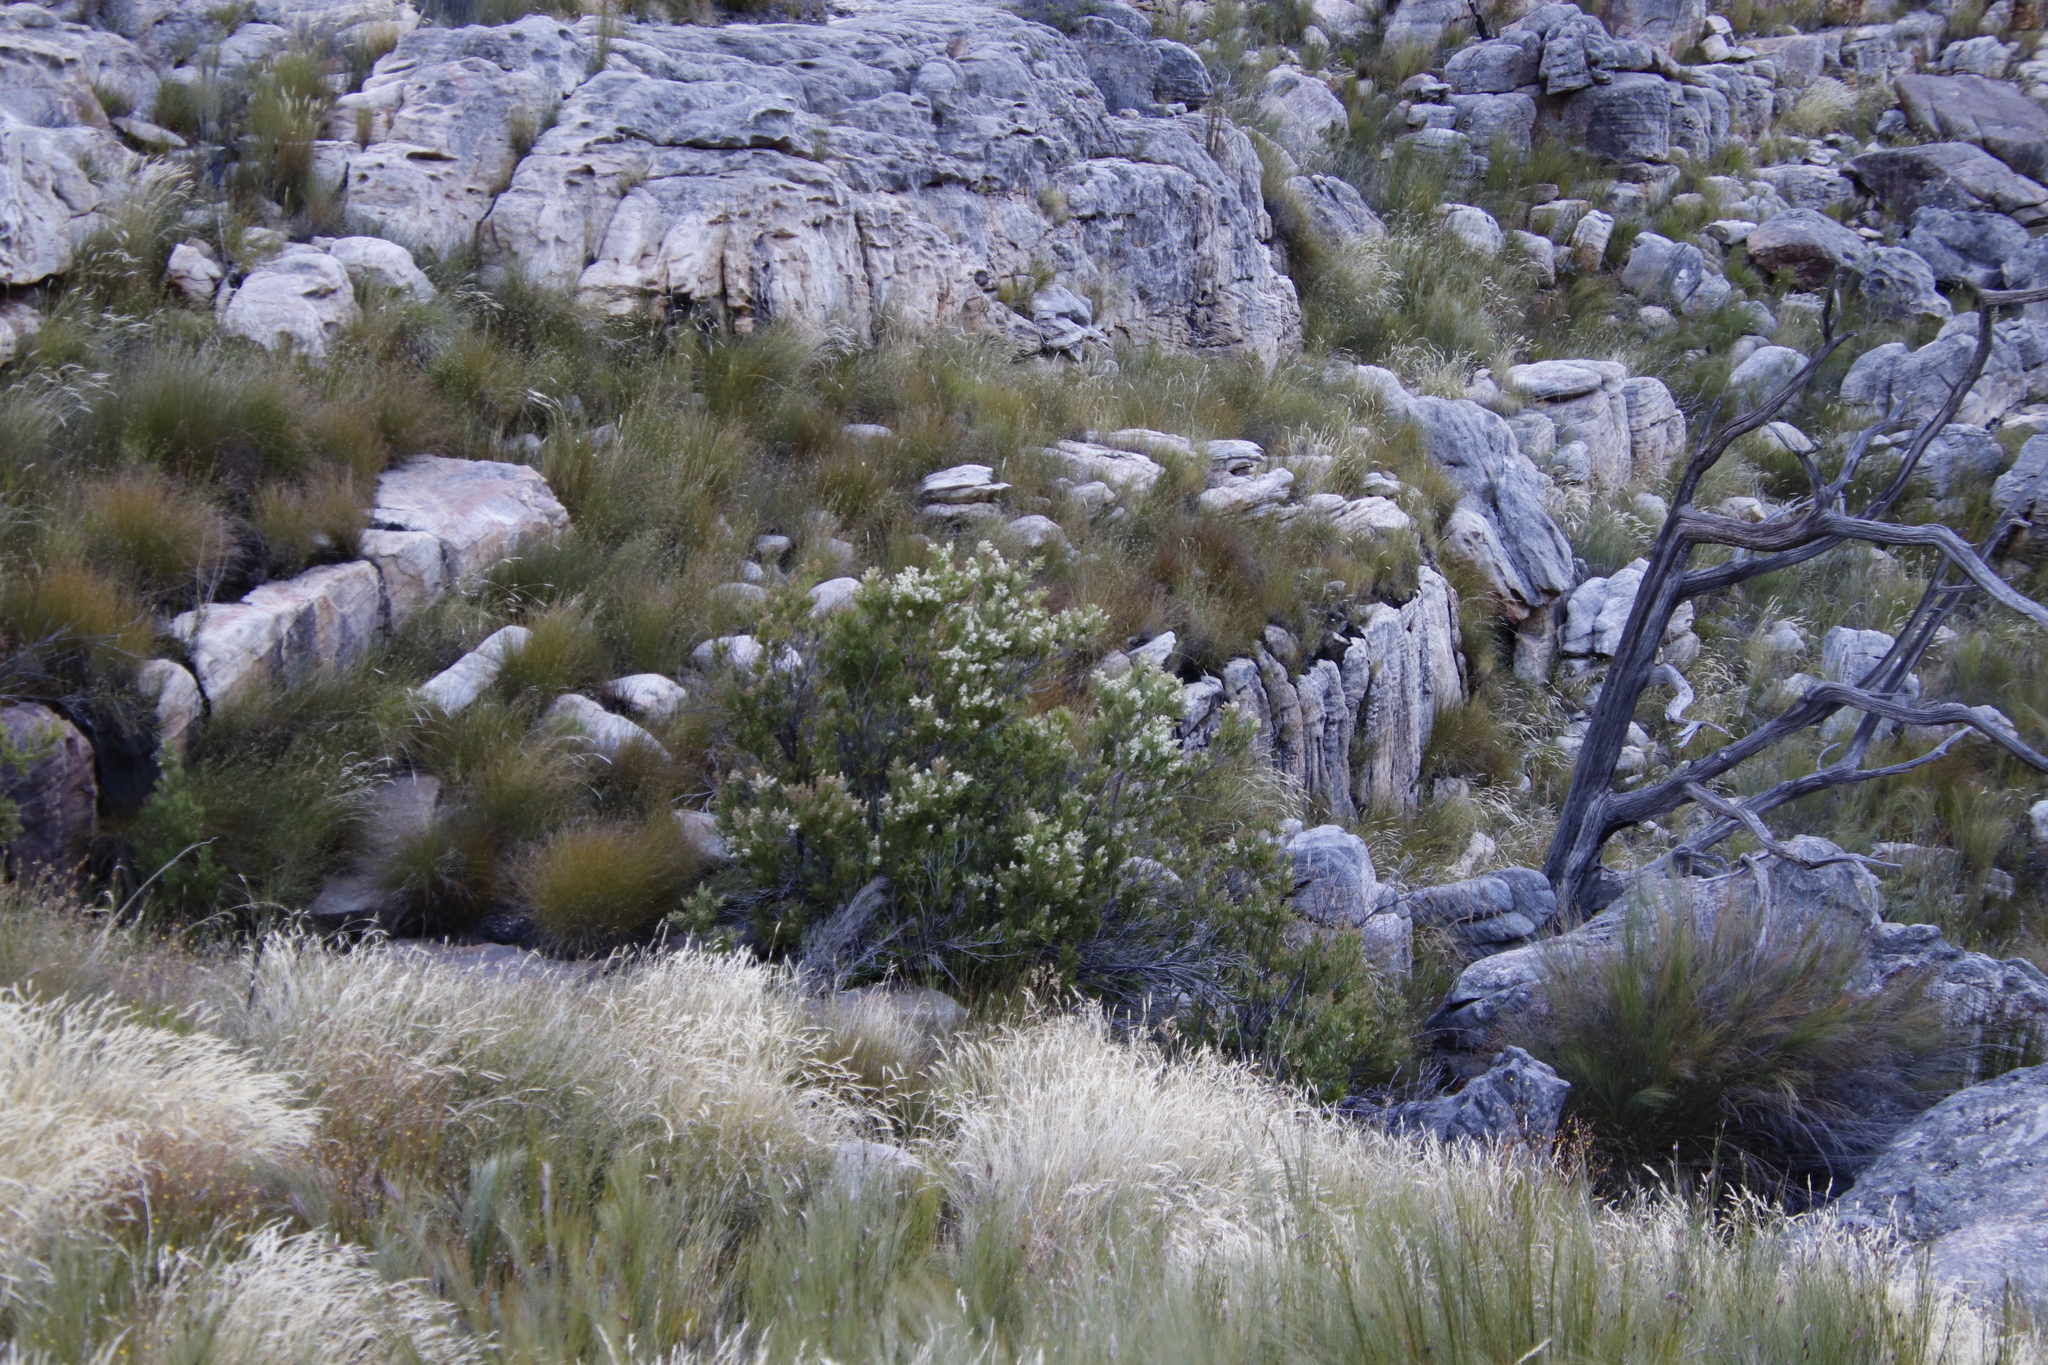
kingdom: Plantae
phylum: Tracheophyta
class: Magnoliopsida
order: Asterales
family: Asteraceae
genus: Brachylaena
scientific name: Brachylaena neriifolia
